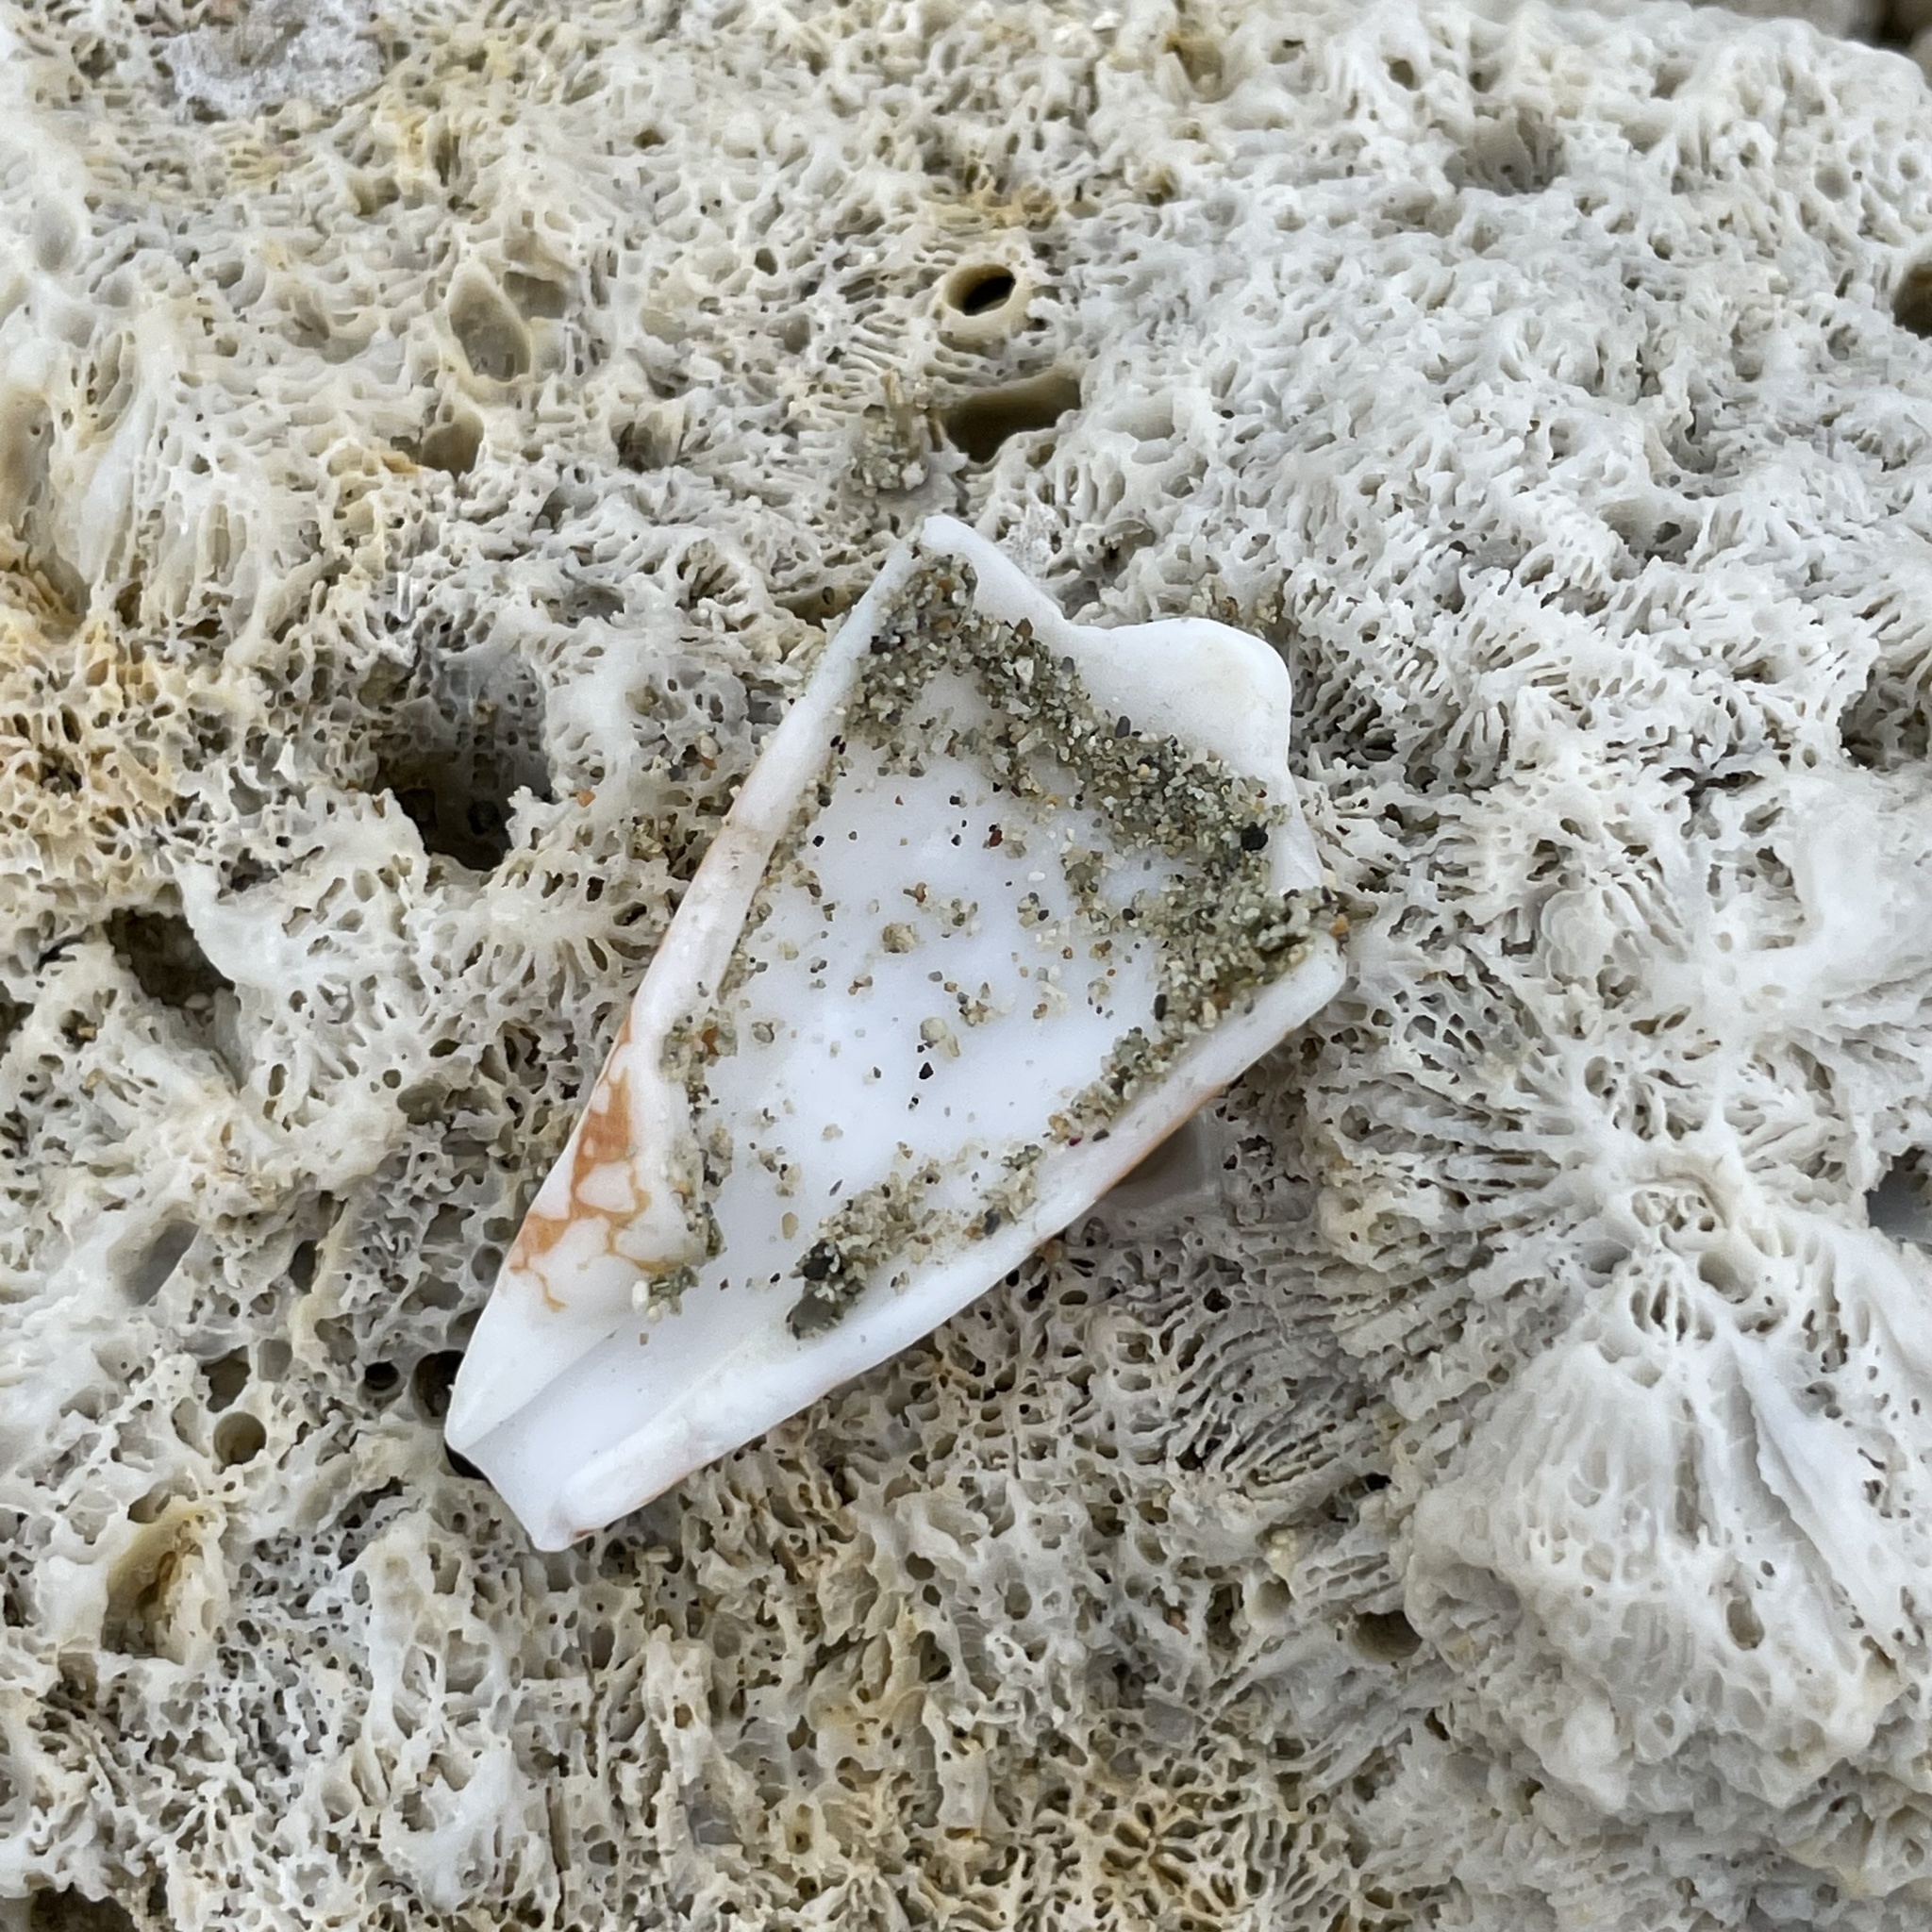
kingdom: Animalia
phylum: Mollusca
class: Gastropoda
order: Neogastropoda
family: Conidae
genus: Conus
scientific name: Conus aulicus
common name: Court cone
